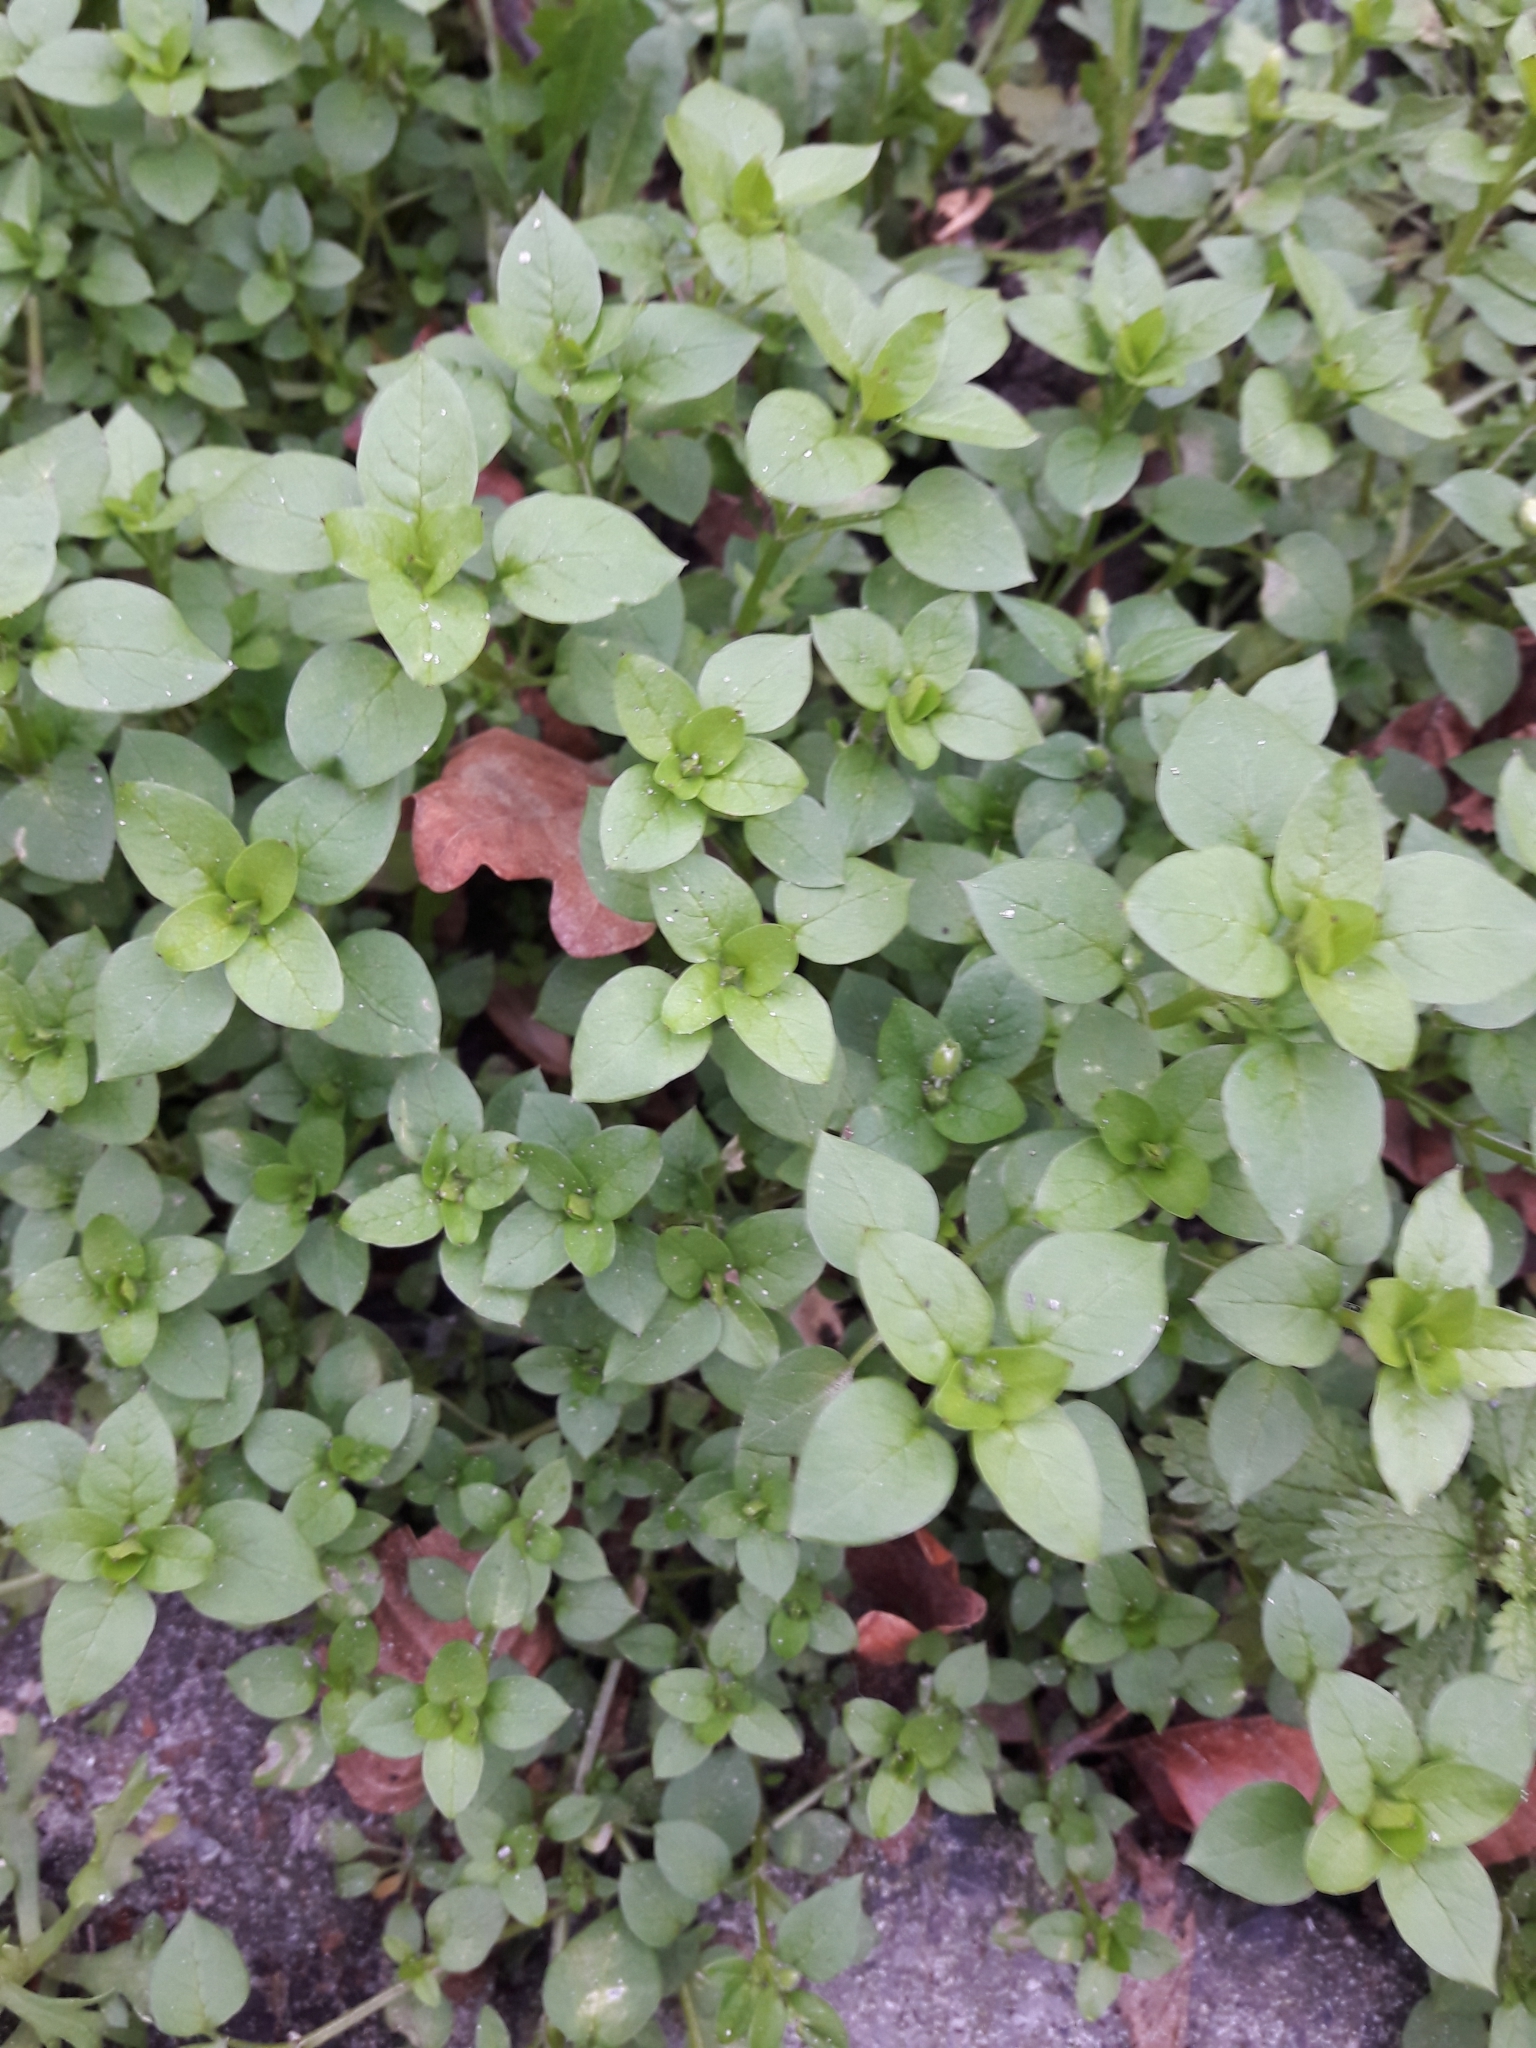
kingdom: Plantae
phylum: Tracheophyta
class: Magnoliopsida
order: Caryophyllales
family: Caryophyllaceae
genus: Stellaria
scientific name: Stellaria media
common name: Common chickweed
